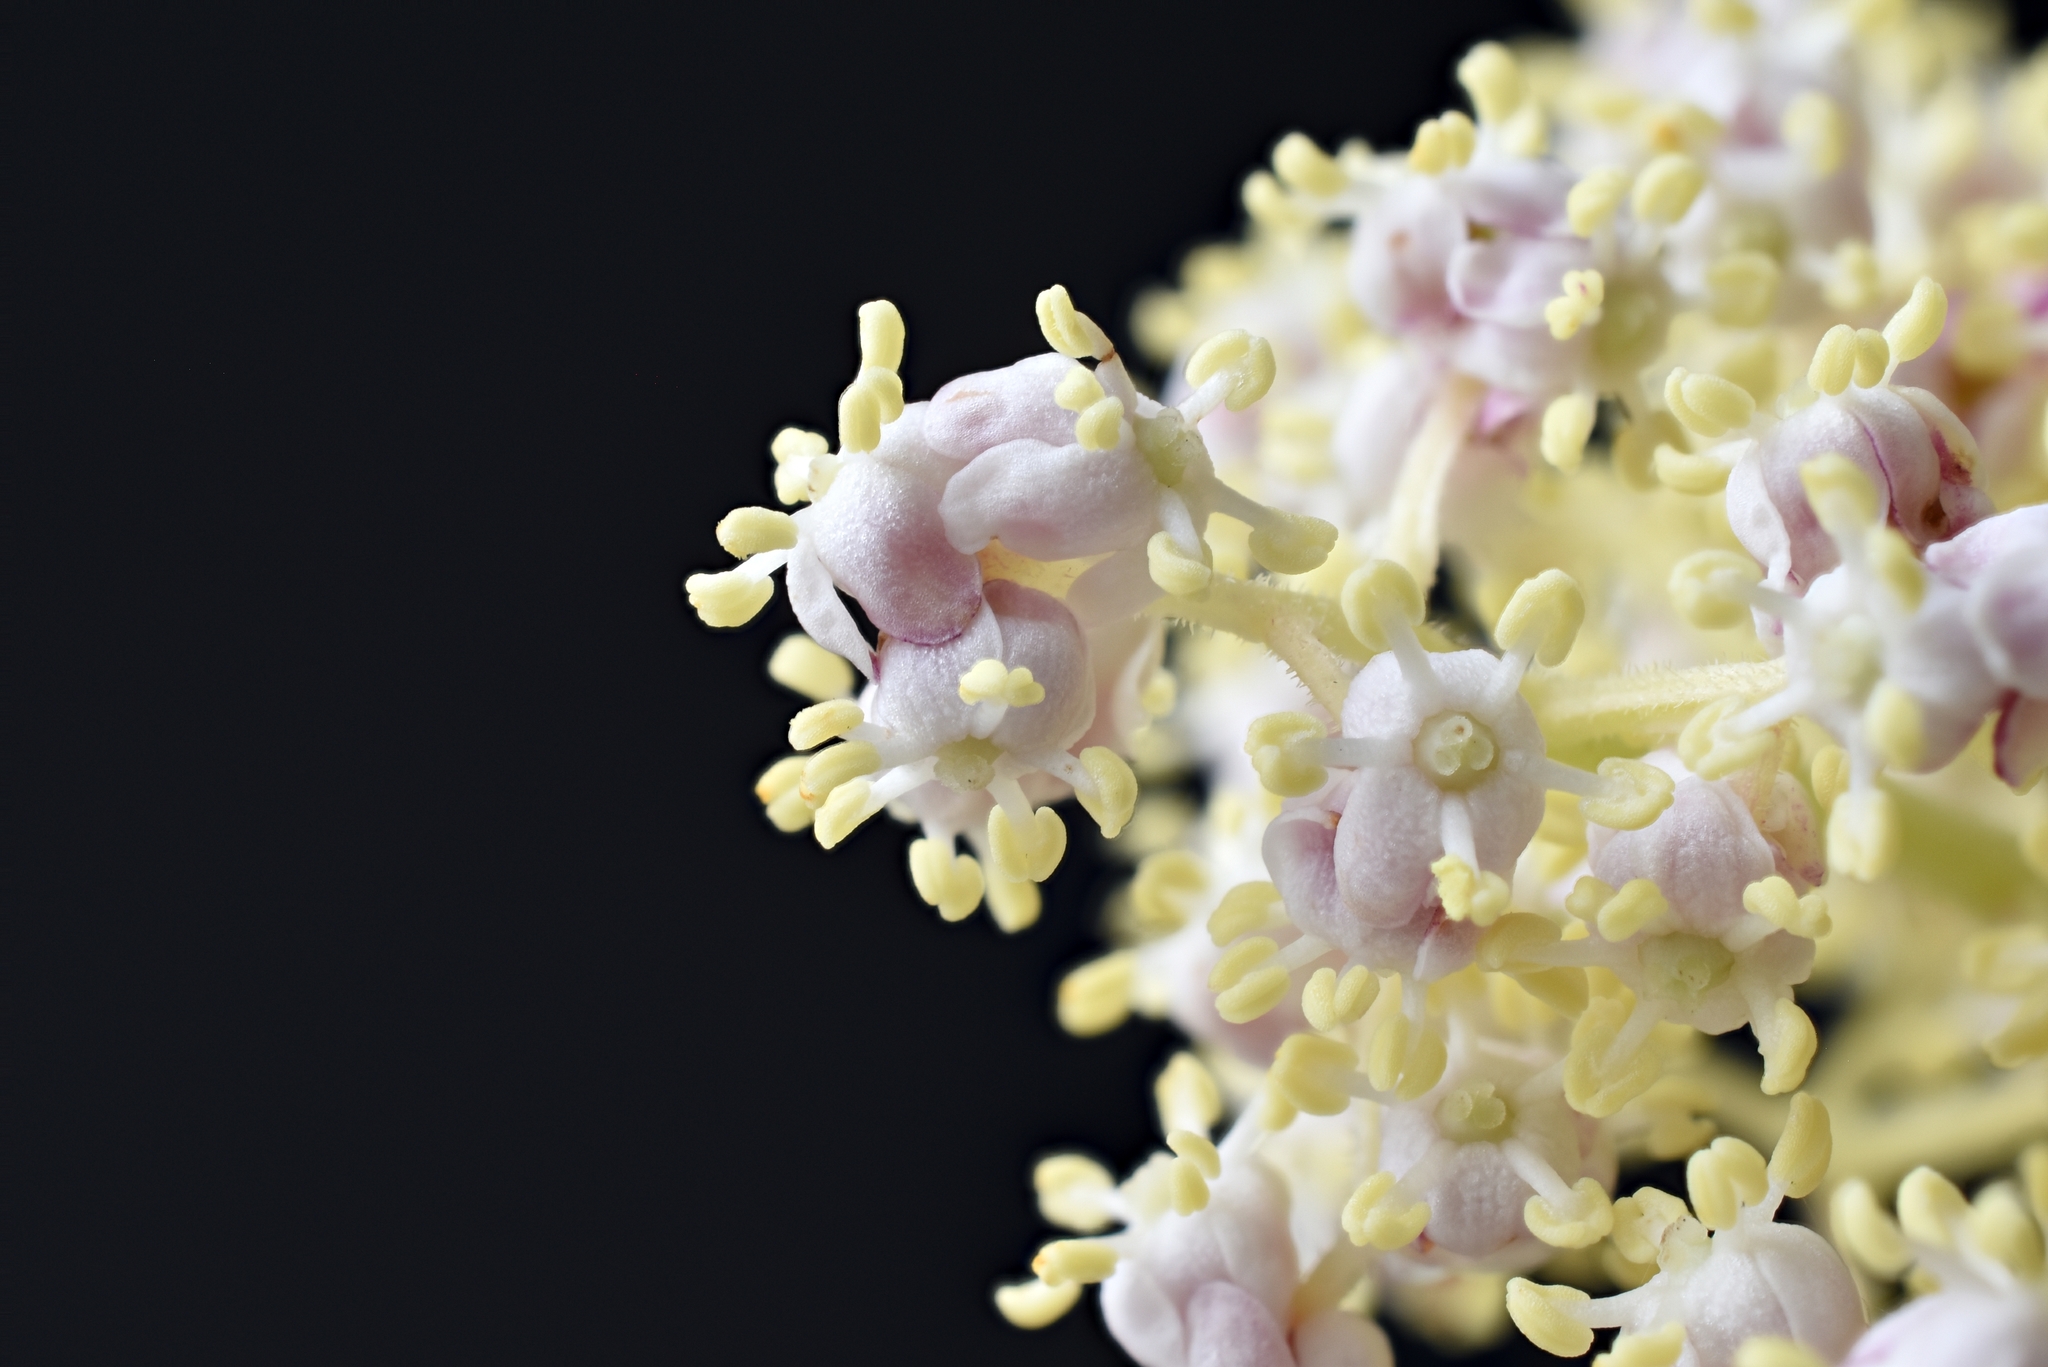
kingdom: Plantae
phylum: Tracheophyta
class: Magnoliopsida
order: Dipsacales
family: Viburnaceae
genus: Sambucus
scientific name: Sambucus racemosa
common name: Red-berried elder
